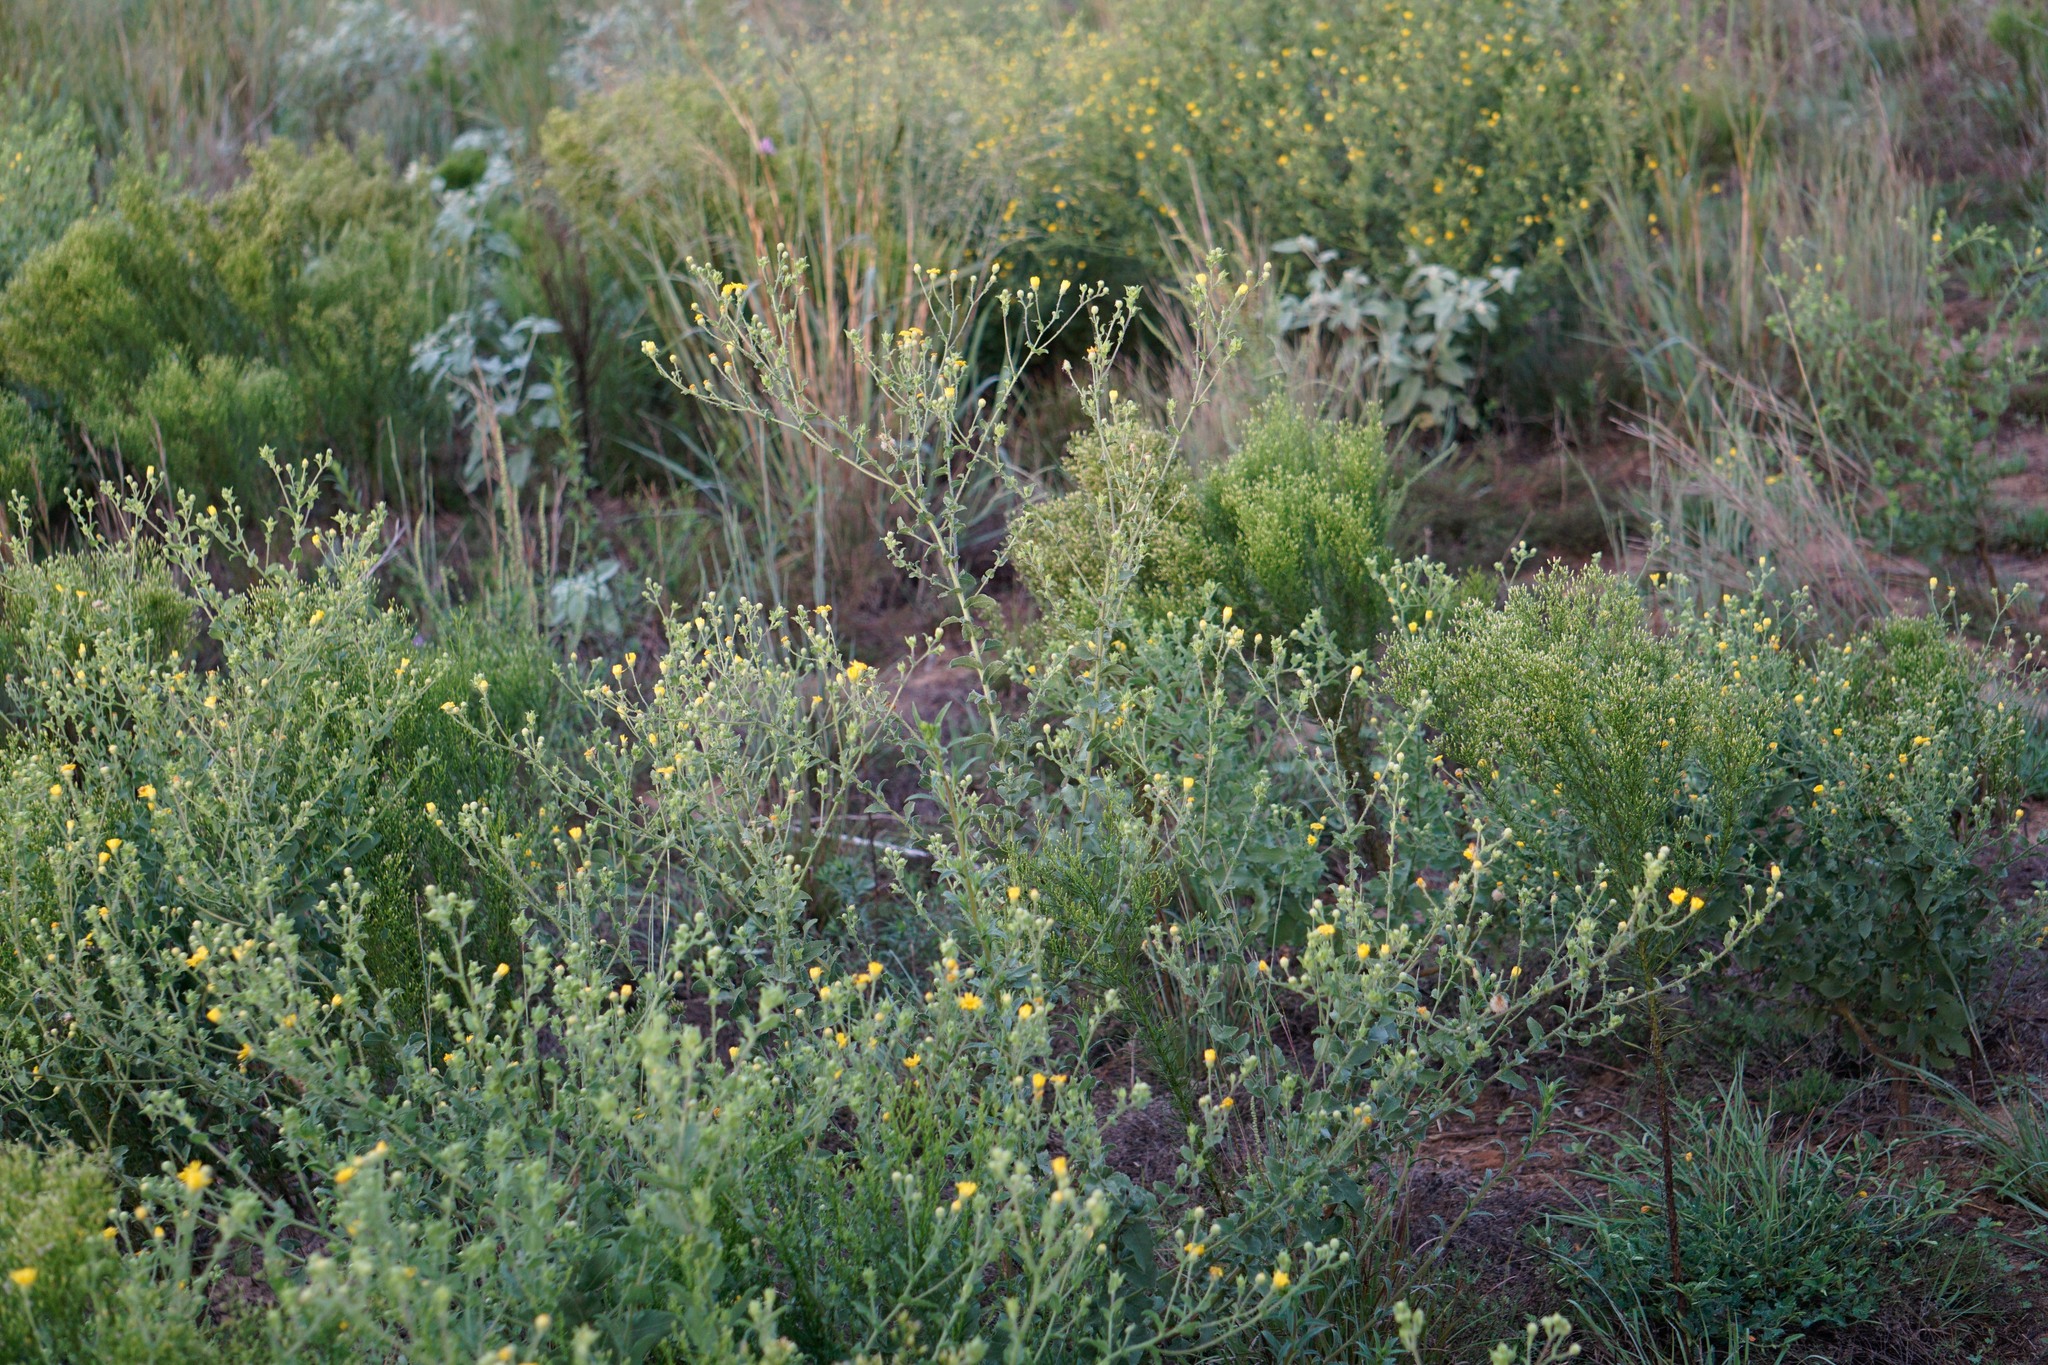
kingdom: Plantae
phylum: Tracheophyta
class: Magnoliopsida
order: Asterales
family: Asteraceae
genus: Heterotheca
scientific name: Heterotheca subaxillaris
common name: Camphorweed
